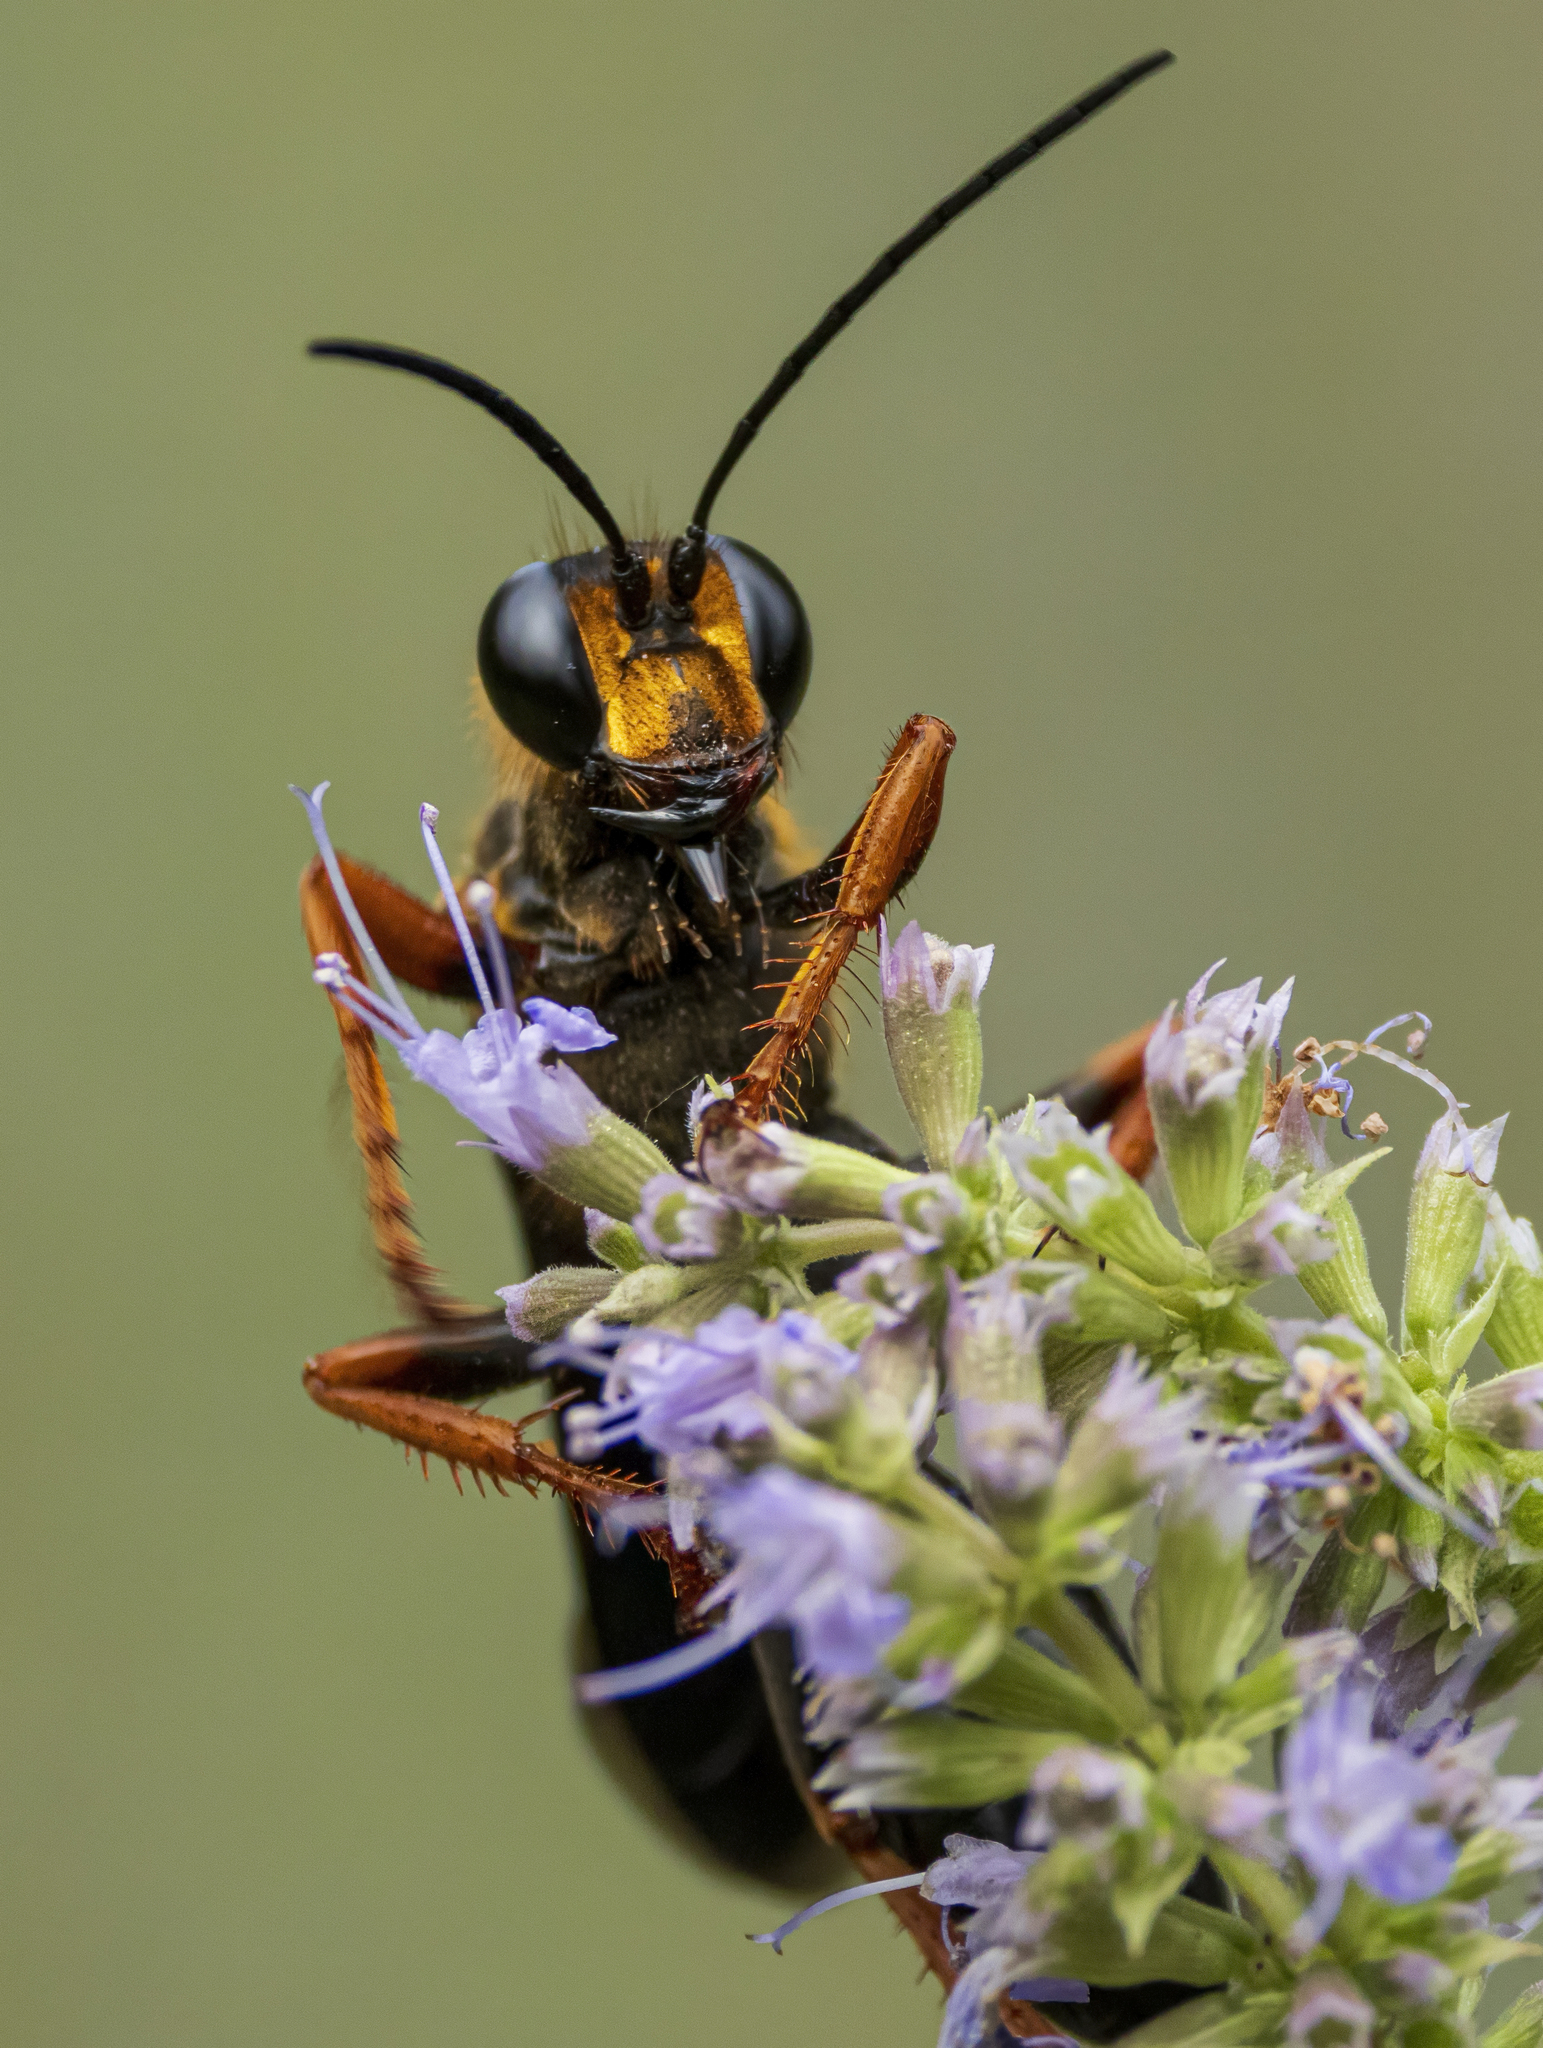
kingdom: Animalia
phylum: Arthropoda
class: Insecta
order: Hymenoptera
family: Sphecidae
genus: Sphex
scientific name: Sphex flavovestitus
